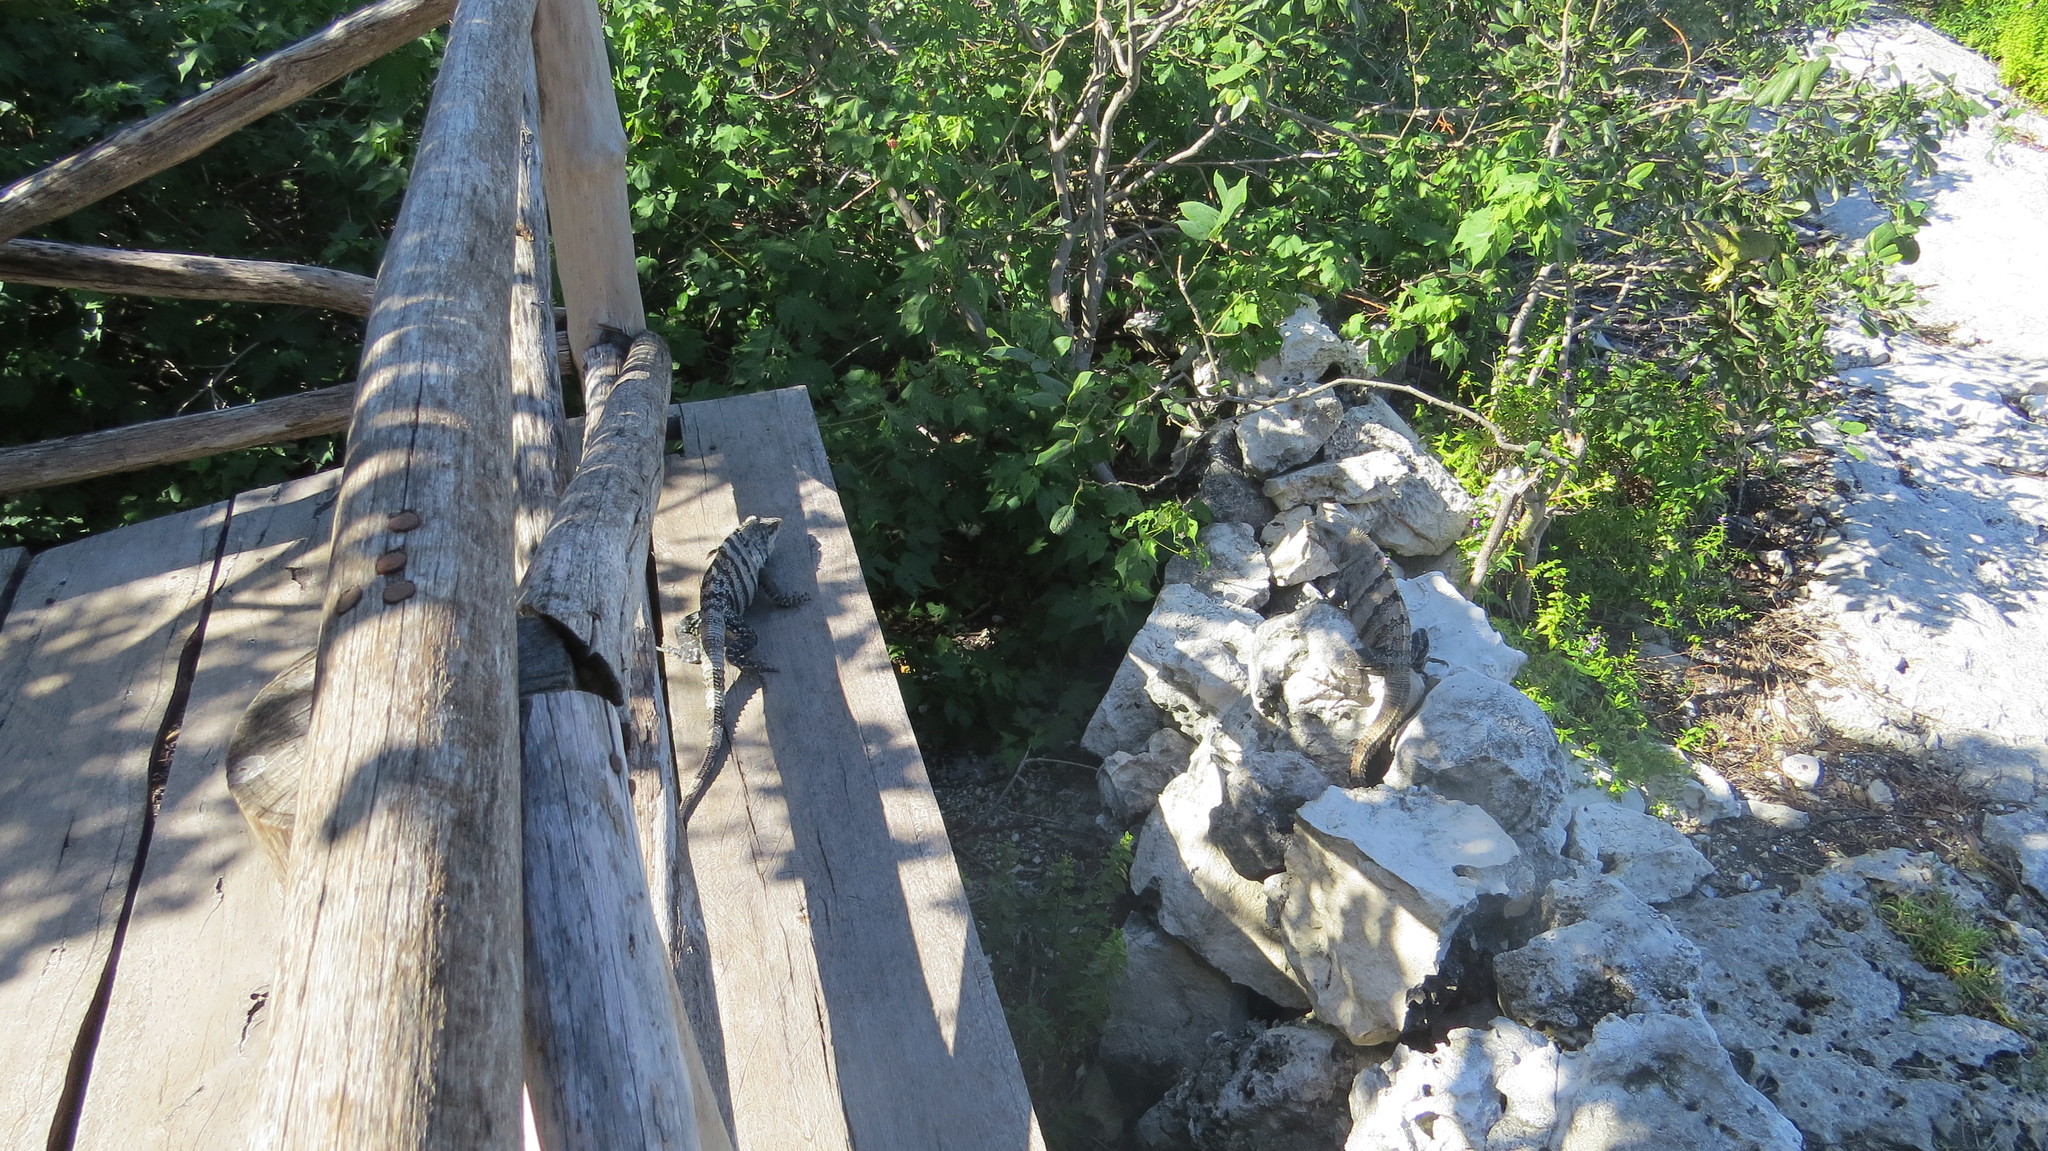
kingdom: Animalia
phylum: Chordata
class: Squamata
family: Iguanidae
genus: Ctenosaura
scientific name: Ctenosaura similis
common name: Black spiny-tailed iguana
